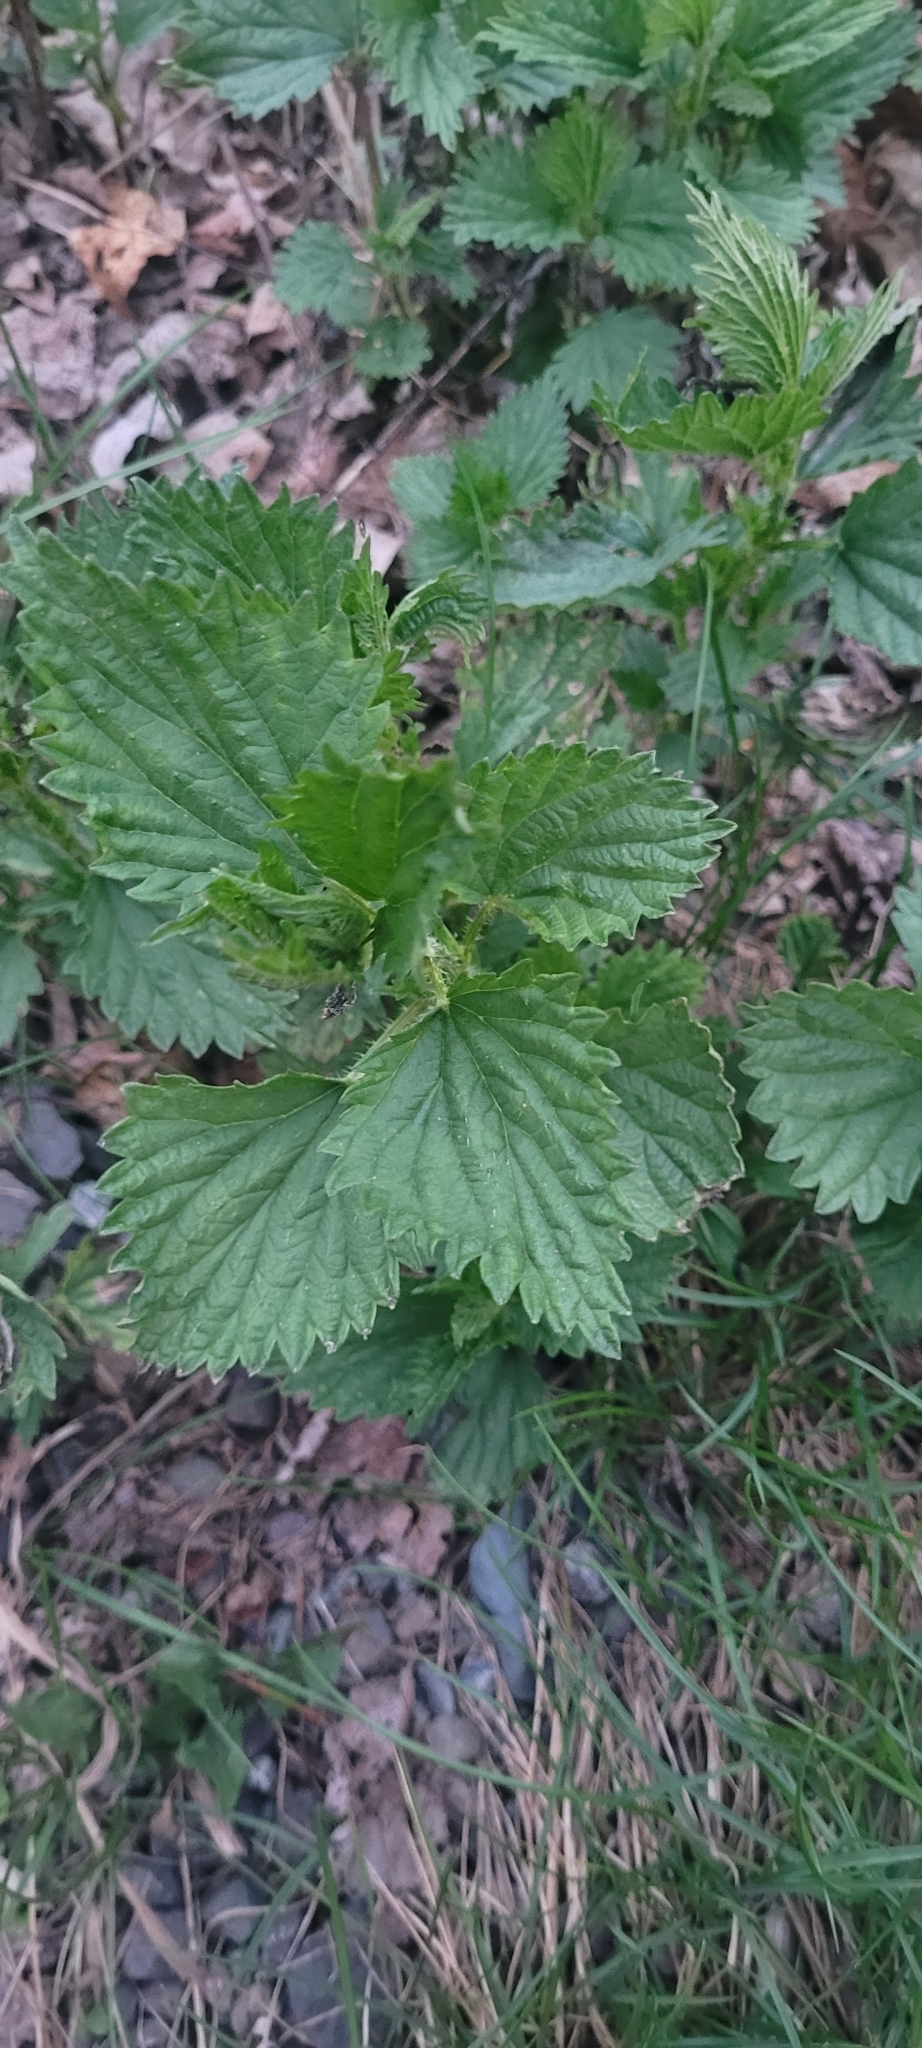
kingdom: Plantae
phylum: Tracheophyta
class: Magnoliopsida
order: Rosales
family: Urticaceae
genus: Urtica
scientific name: Urtica dioica
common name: Common nettle
